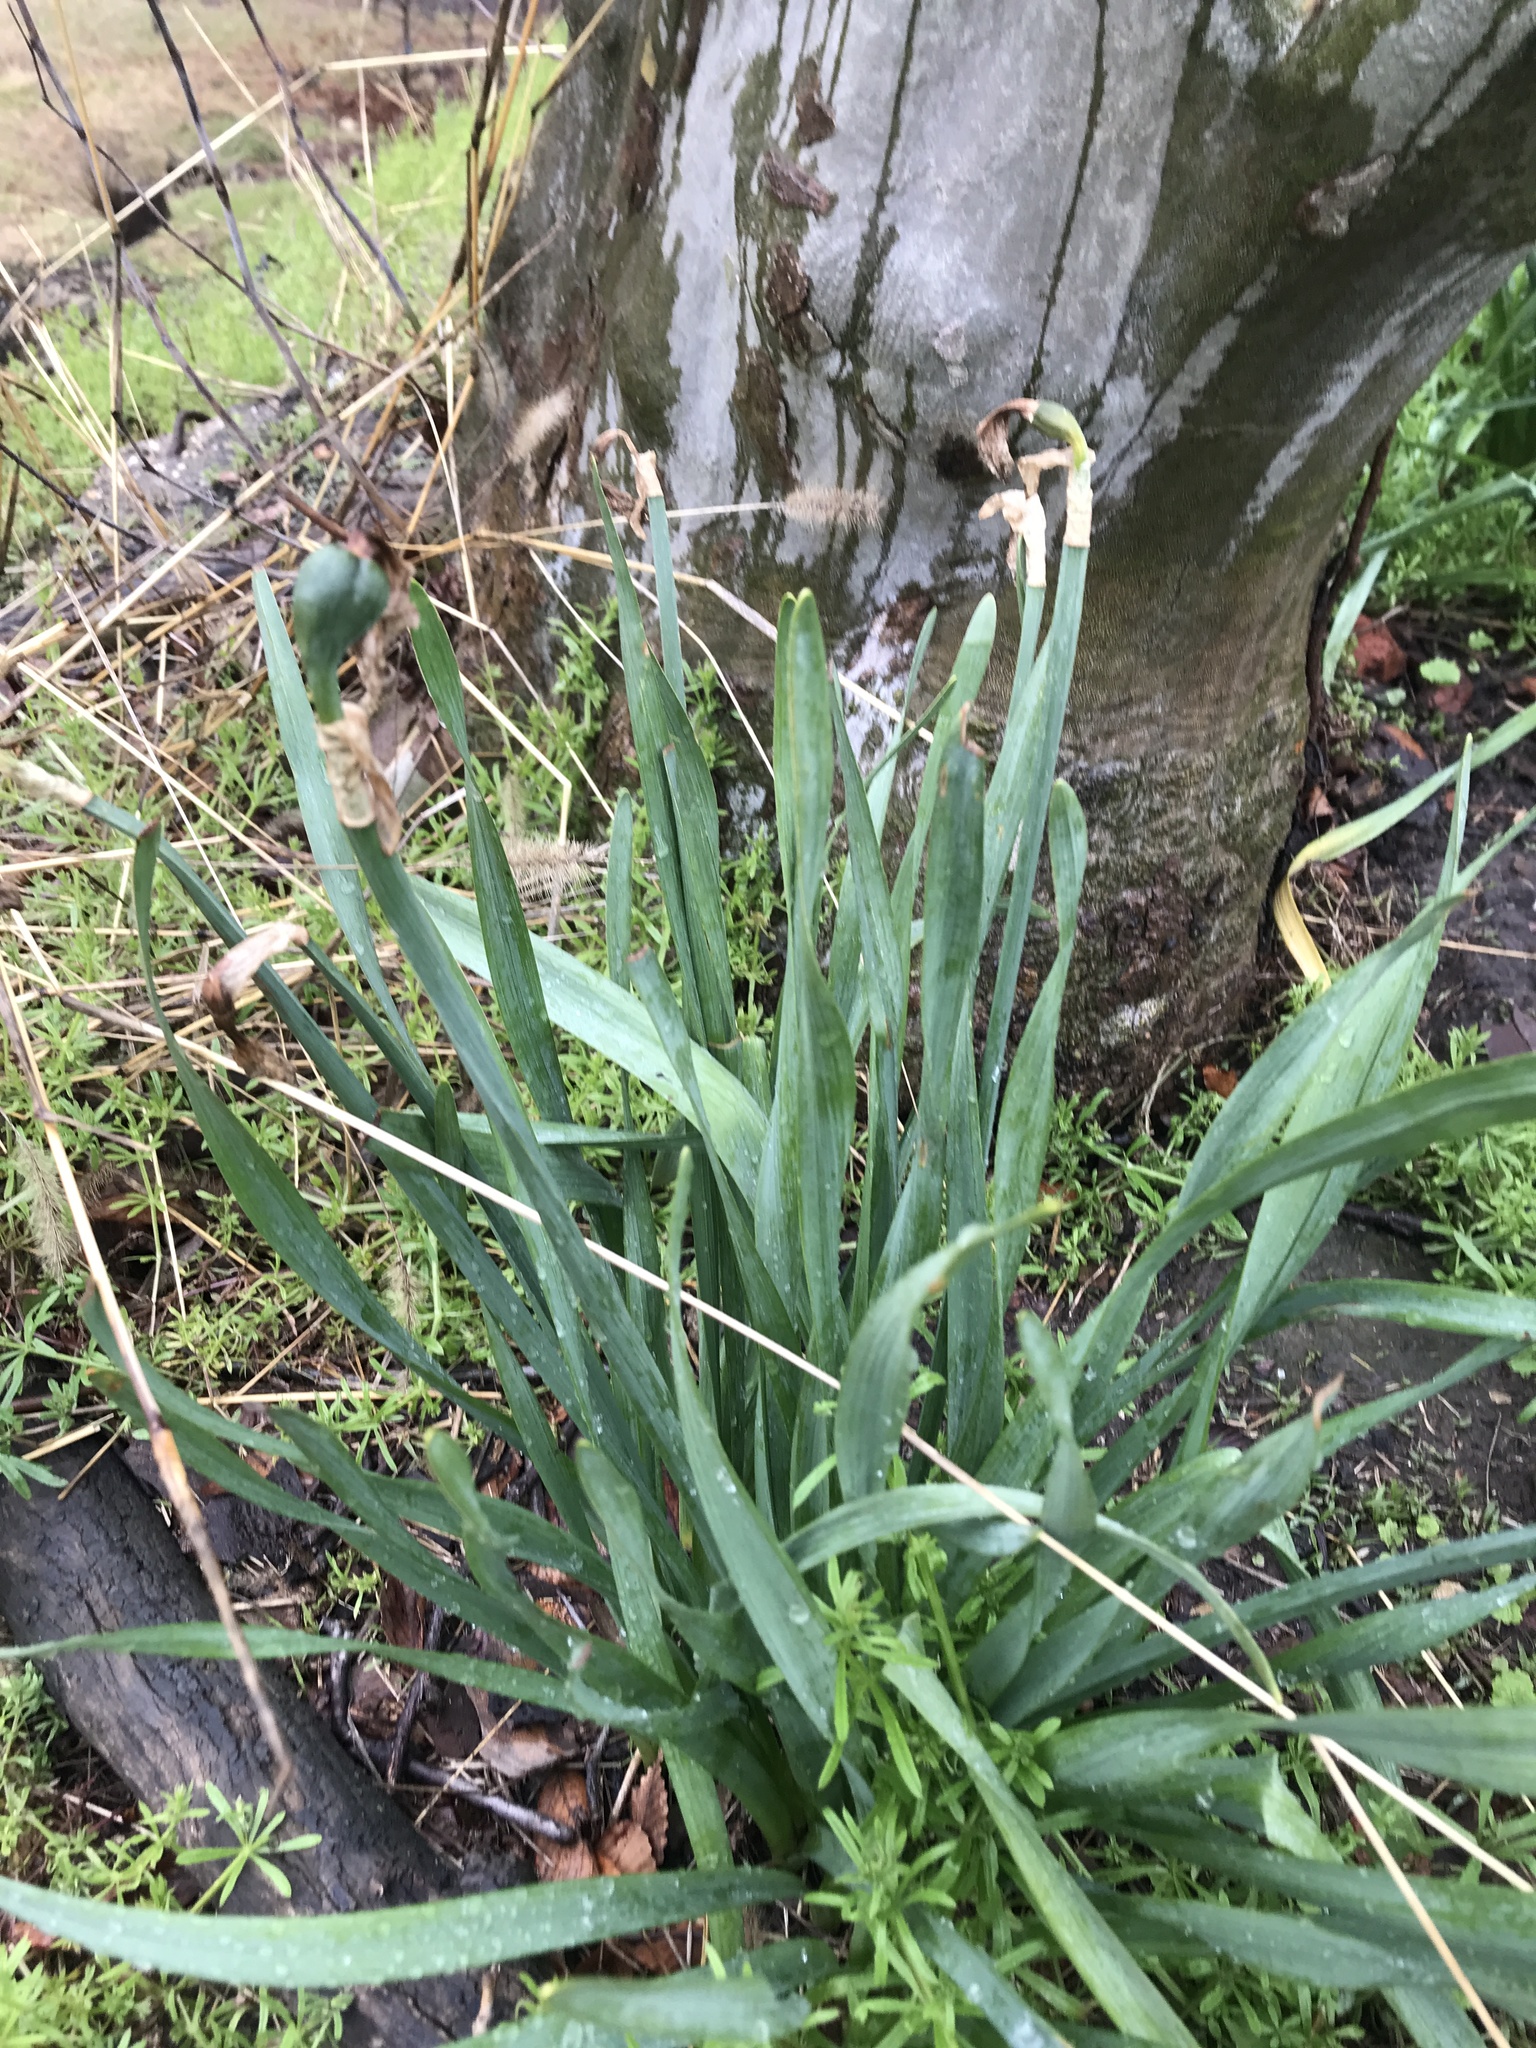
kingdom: Plantae
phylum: Tracheophyta
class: Liliopsida
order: Asparagales
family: Amaryllidaceae
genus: Narcissus
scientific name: Narcissus
